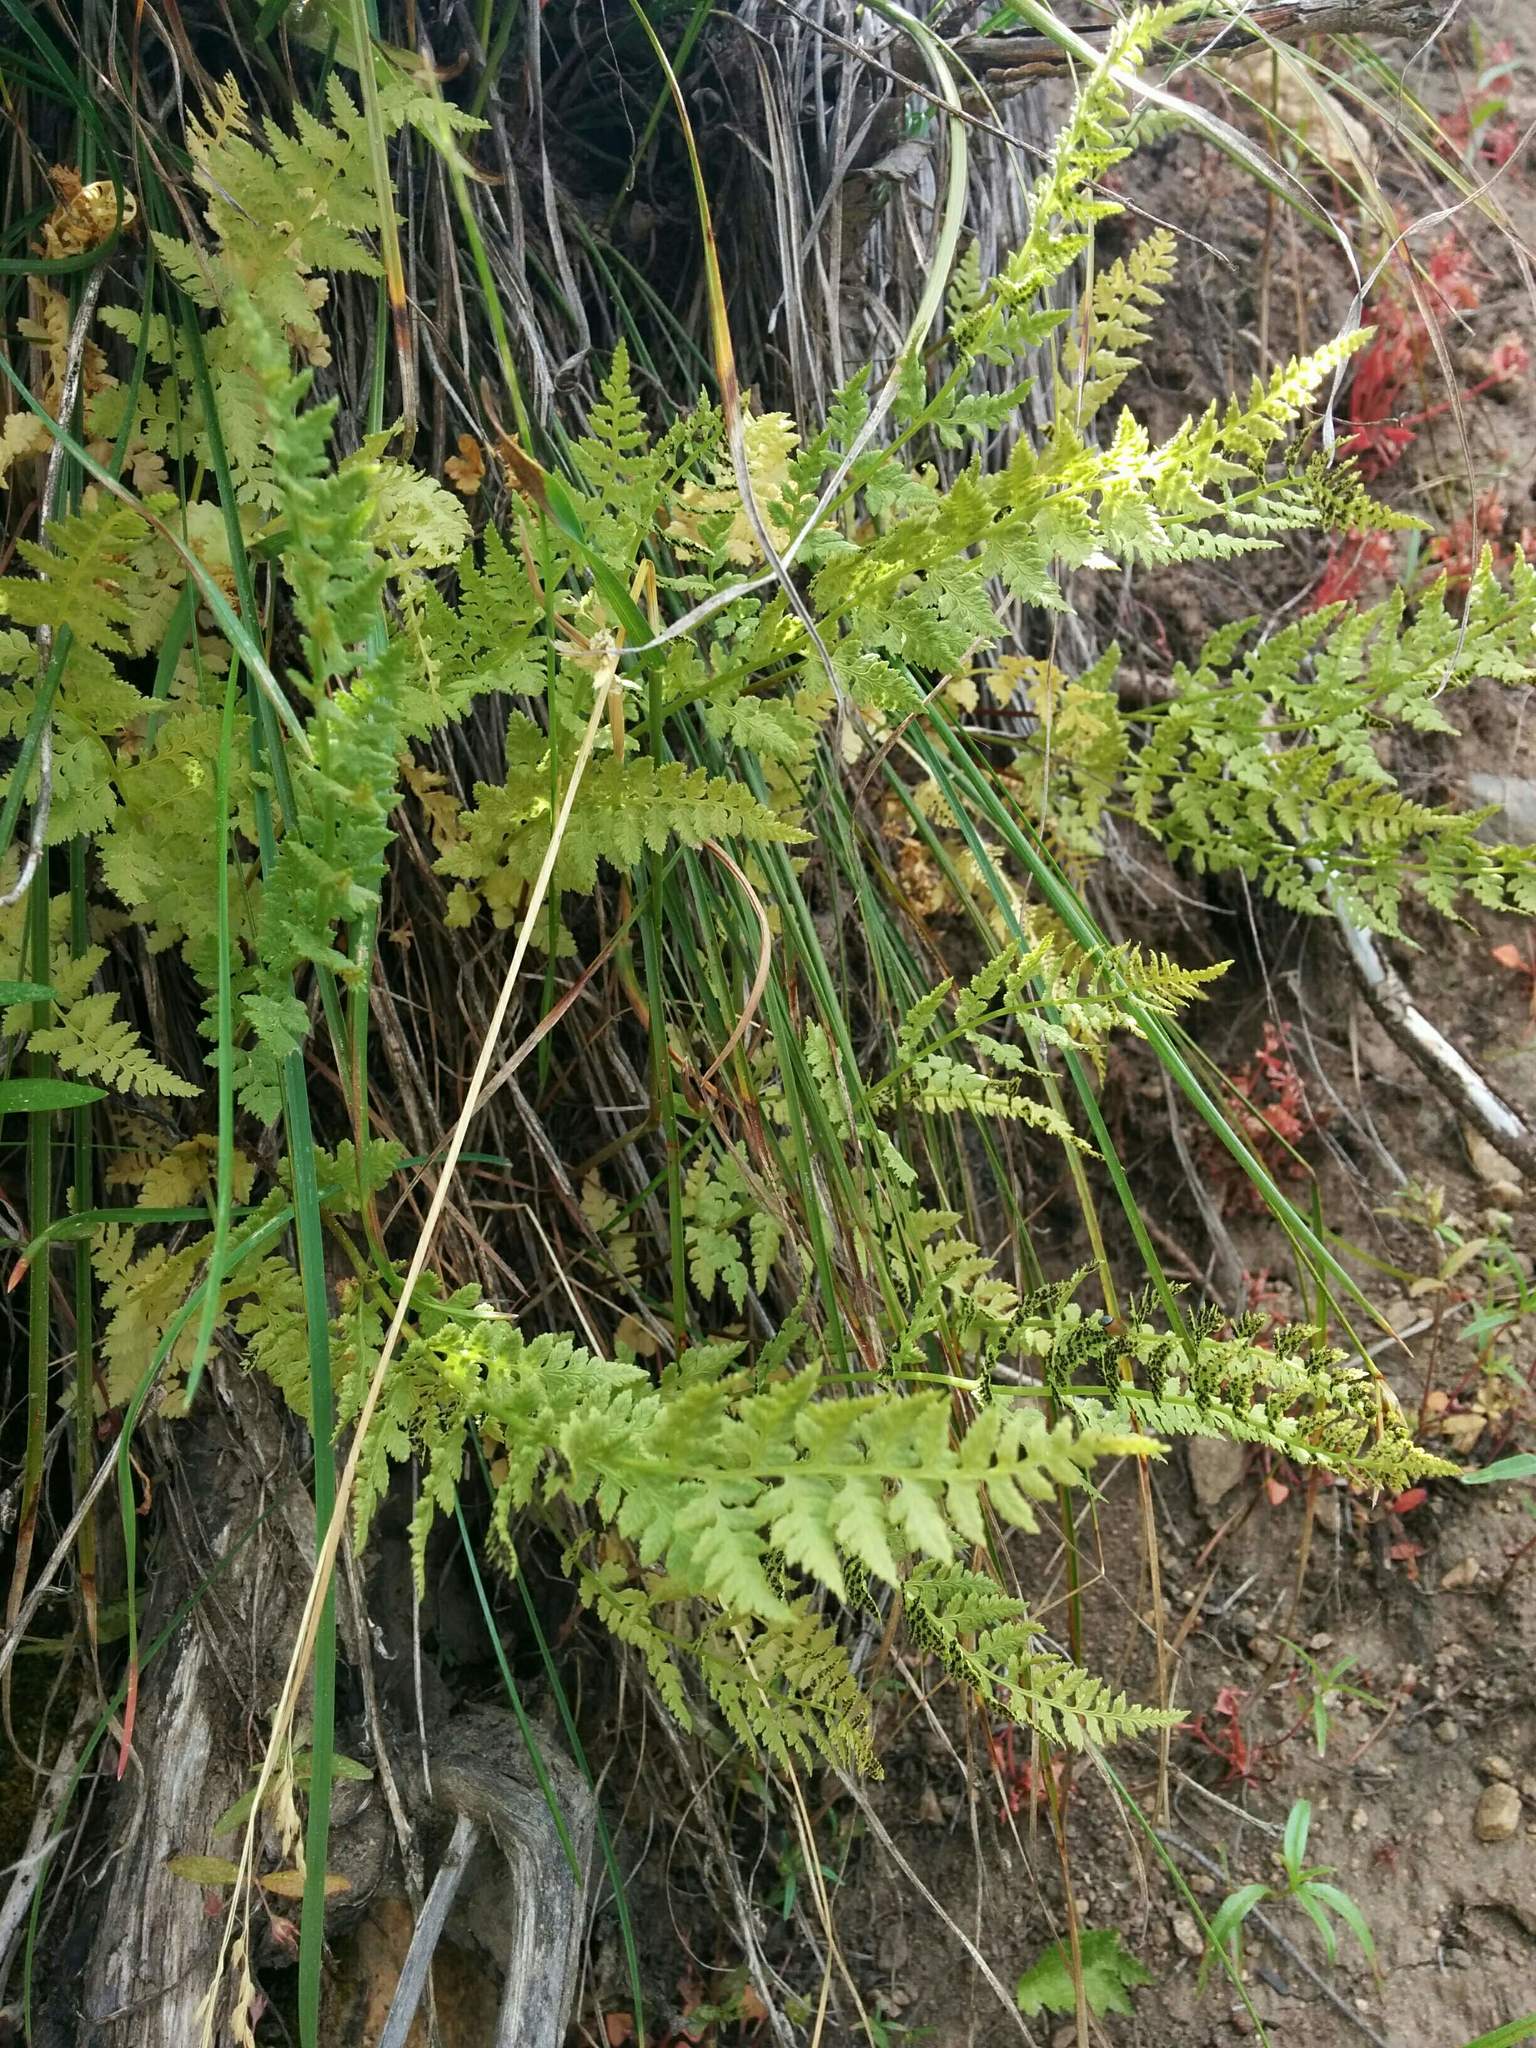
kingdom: Plantae
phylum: Tracheophyta
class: Polypodiopsida
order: Polypodiales
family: Cystopteridaceae
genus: Cystopteris
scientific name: Cystopteris fragilis
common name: Brittle bladder fern
